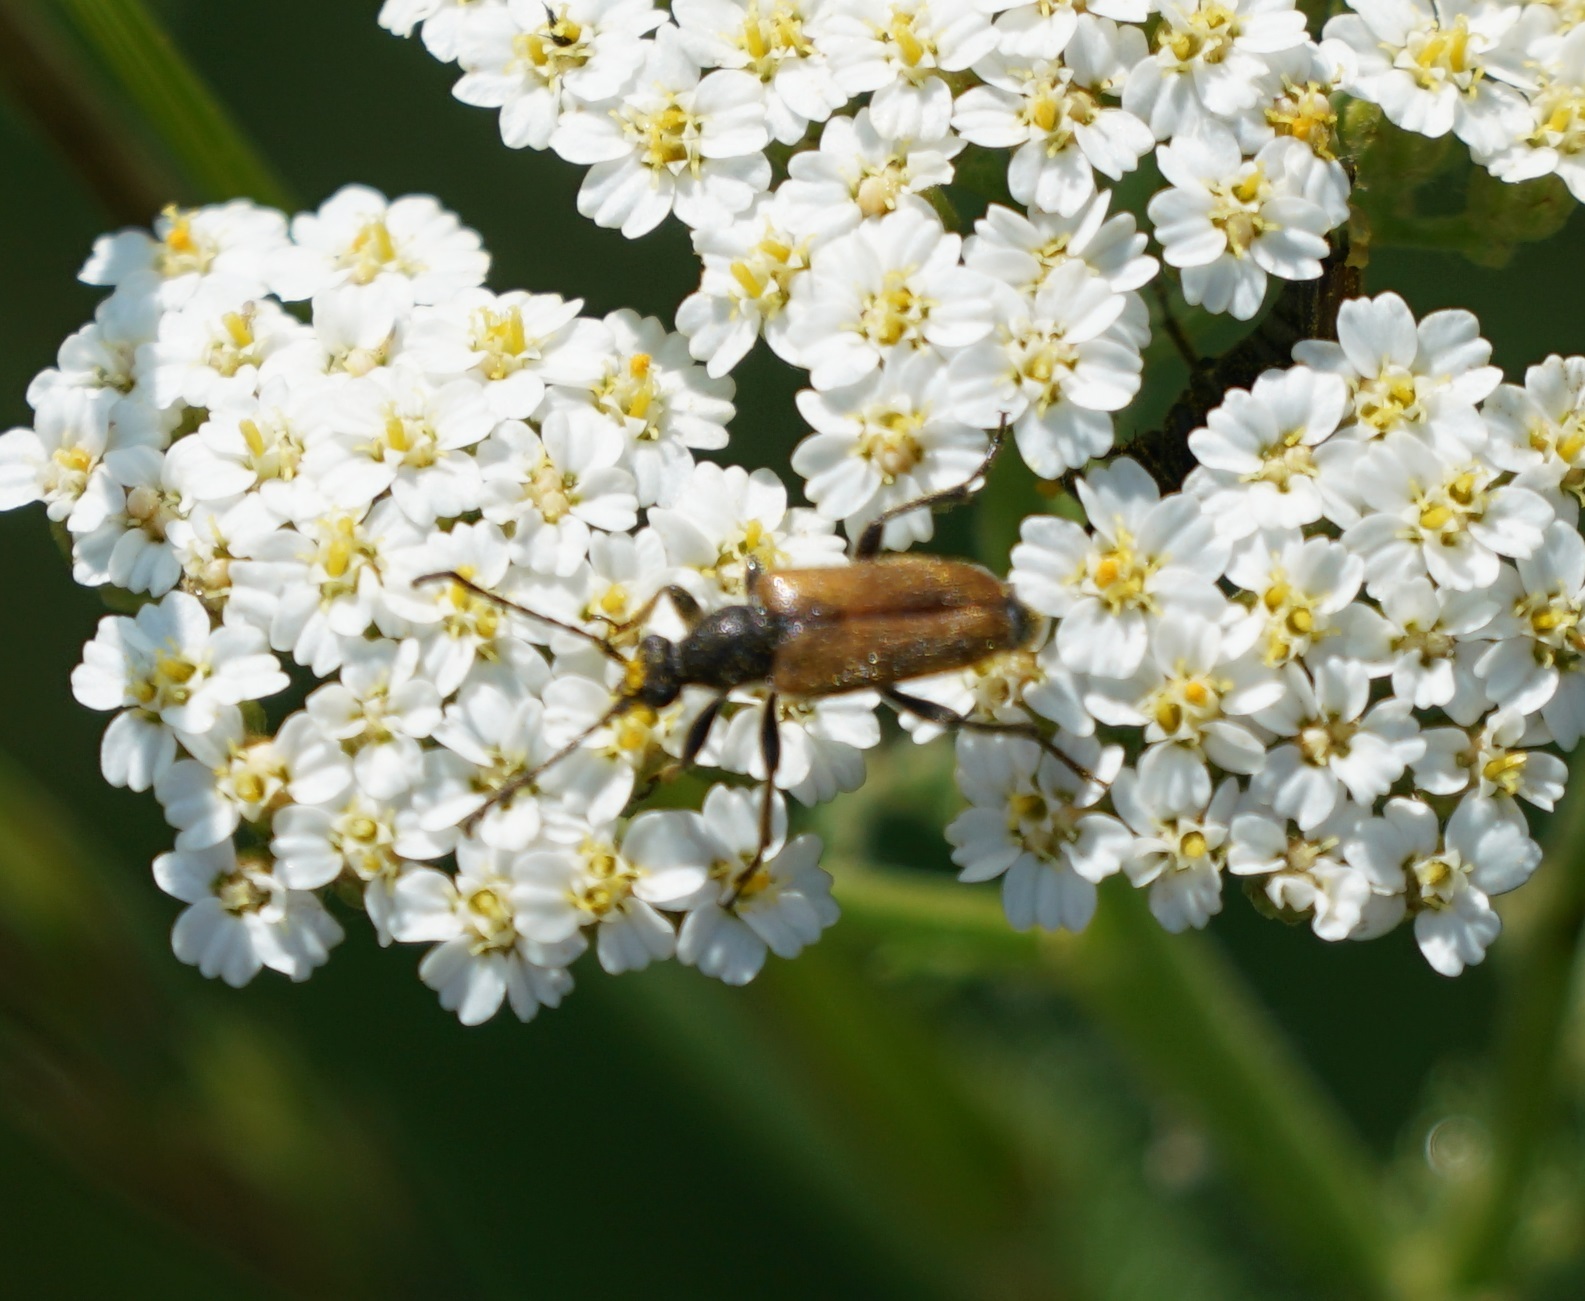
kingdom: Animalia
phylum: Arthropoda
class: Insecta
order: Coleoptera
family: Cerambycidae
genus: Pseudovadonia
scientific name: Pseudovadonia livida
